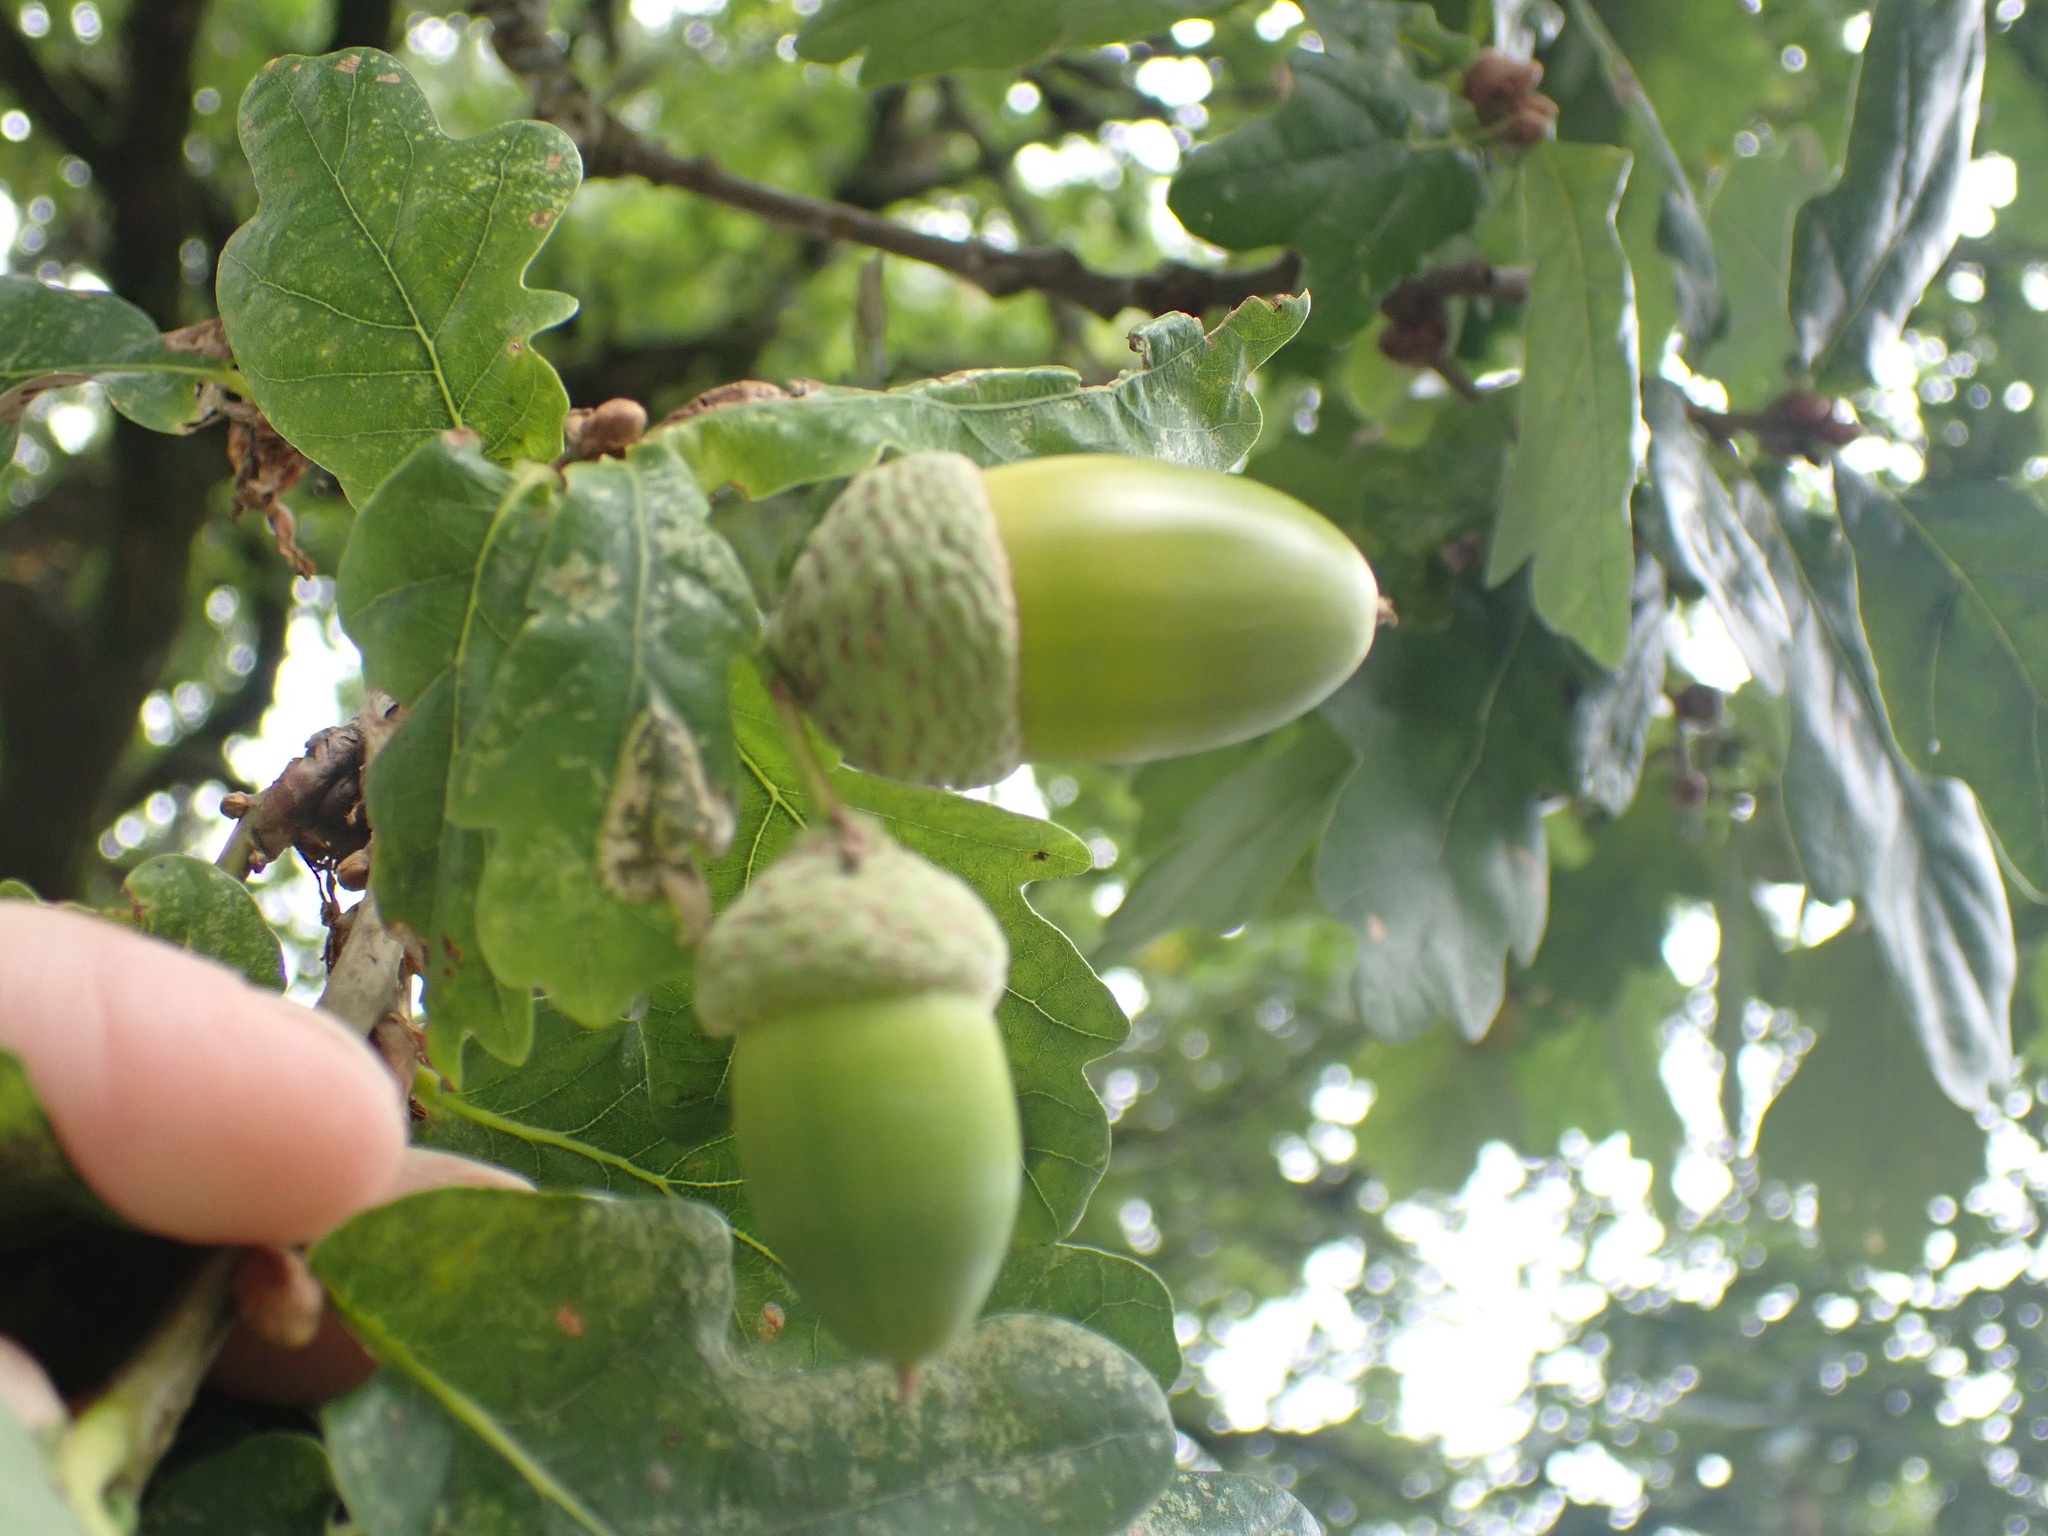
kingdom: Plantae
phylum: Tracheophyta
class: Magnoliopsida
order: Fagales
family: Fagaceae
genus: Quercus
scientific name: Quercus robur
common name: Pedunculate oak
